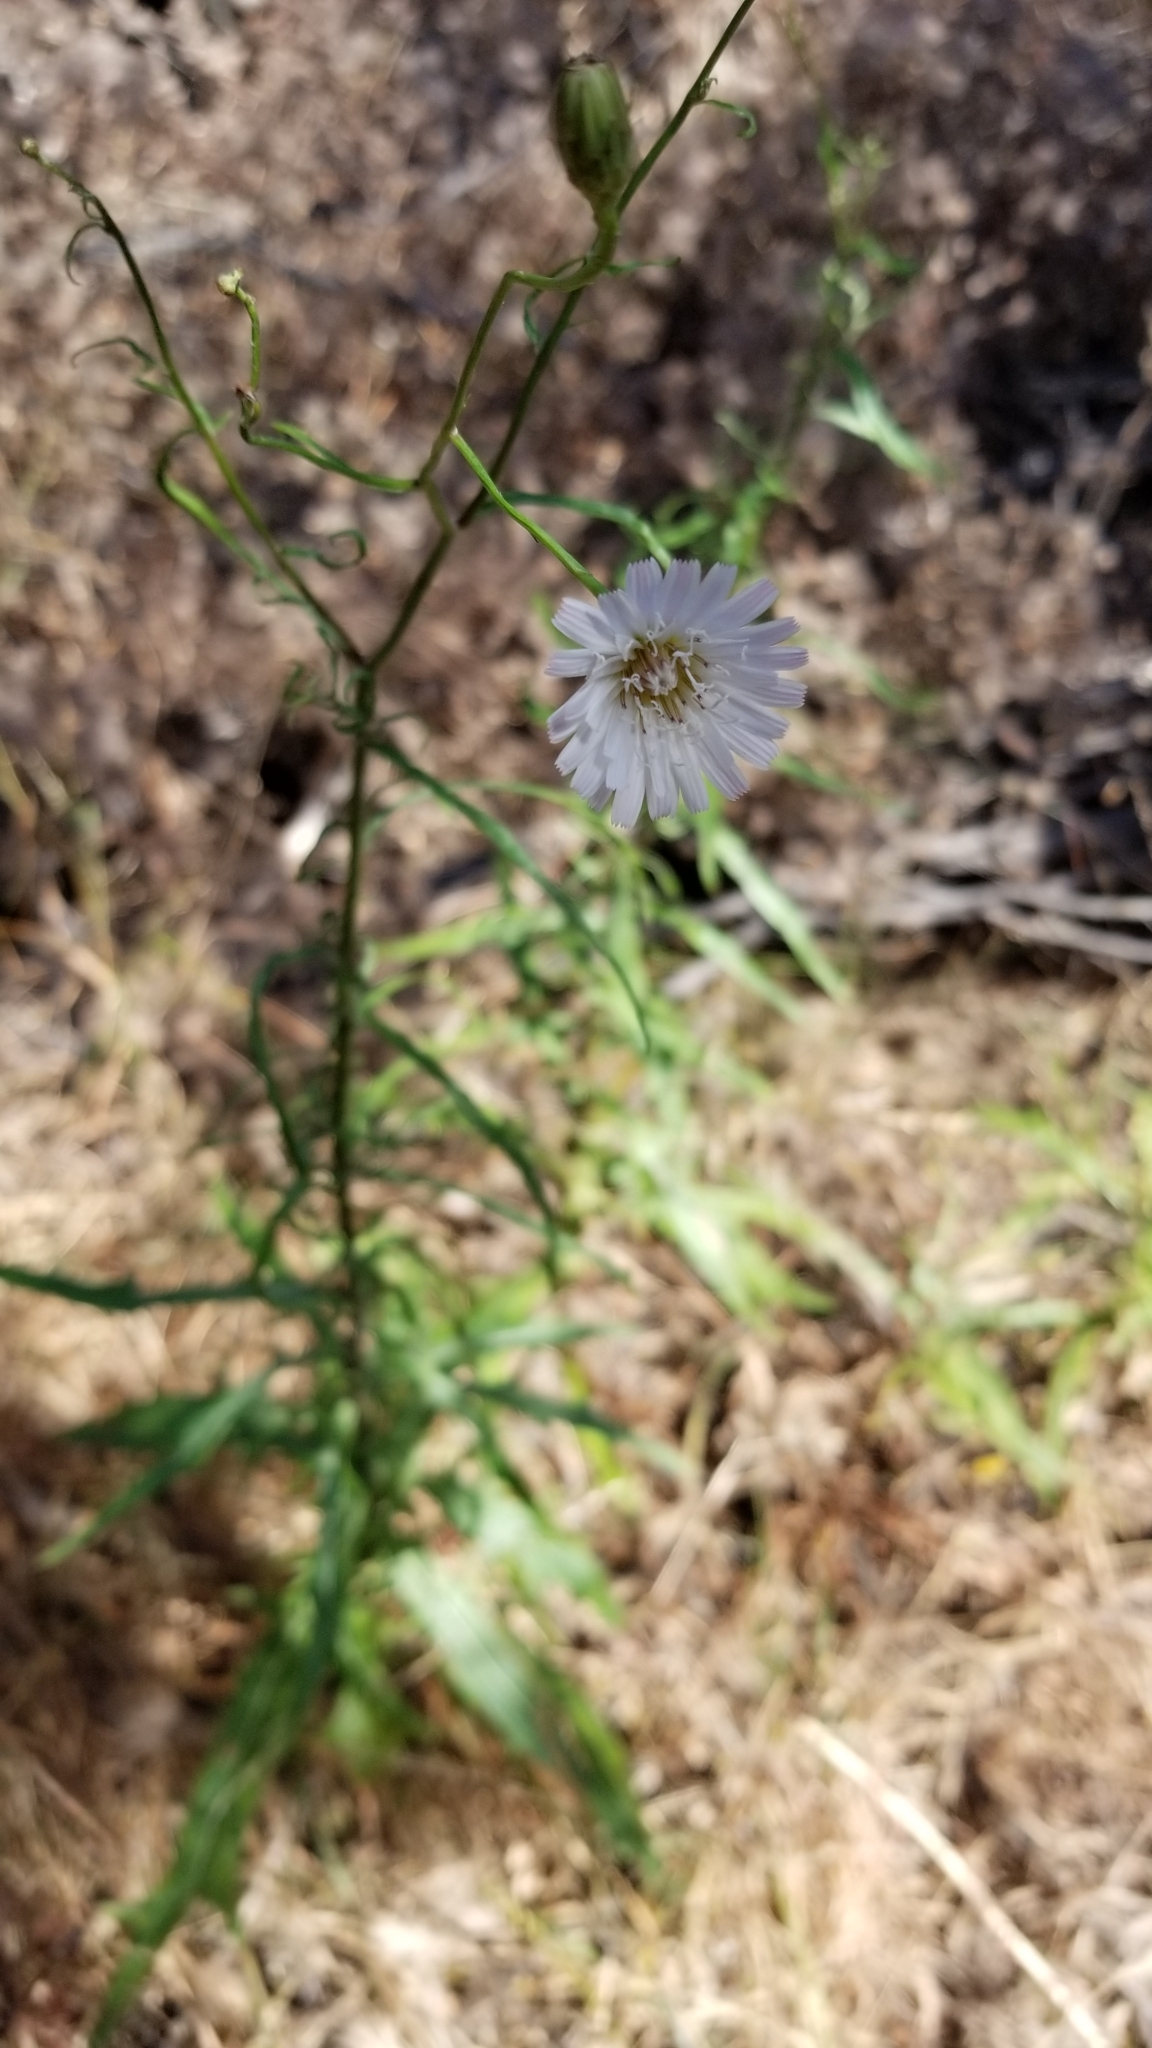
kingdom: Plantae
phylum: Tracheophyta
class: Magnoliopsida
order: Asterales
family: Asteraceae
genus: Malacothrix
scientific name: Malacothrix saxatilis
